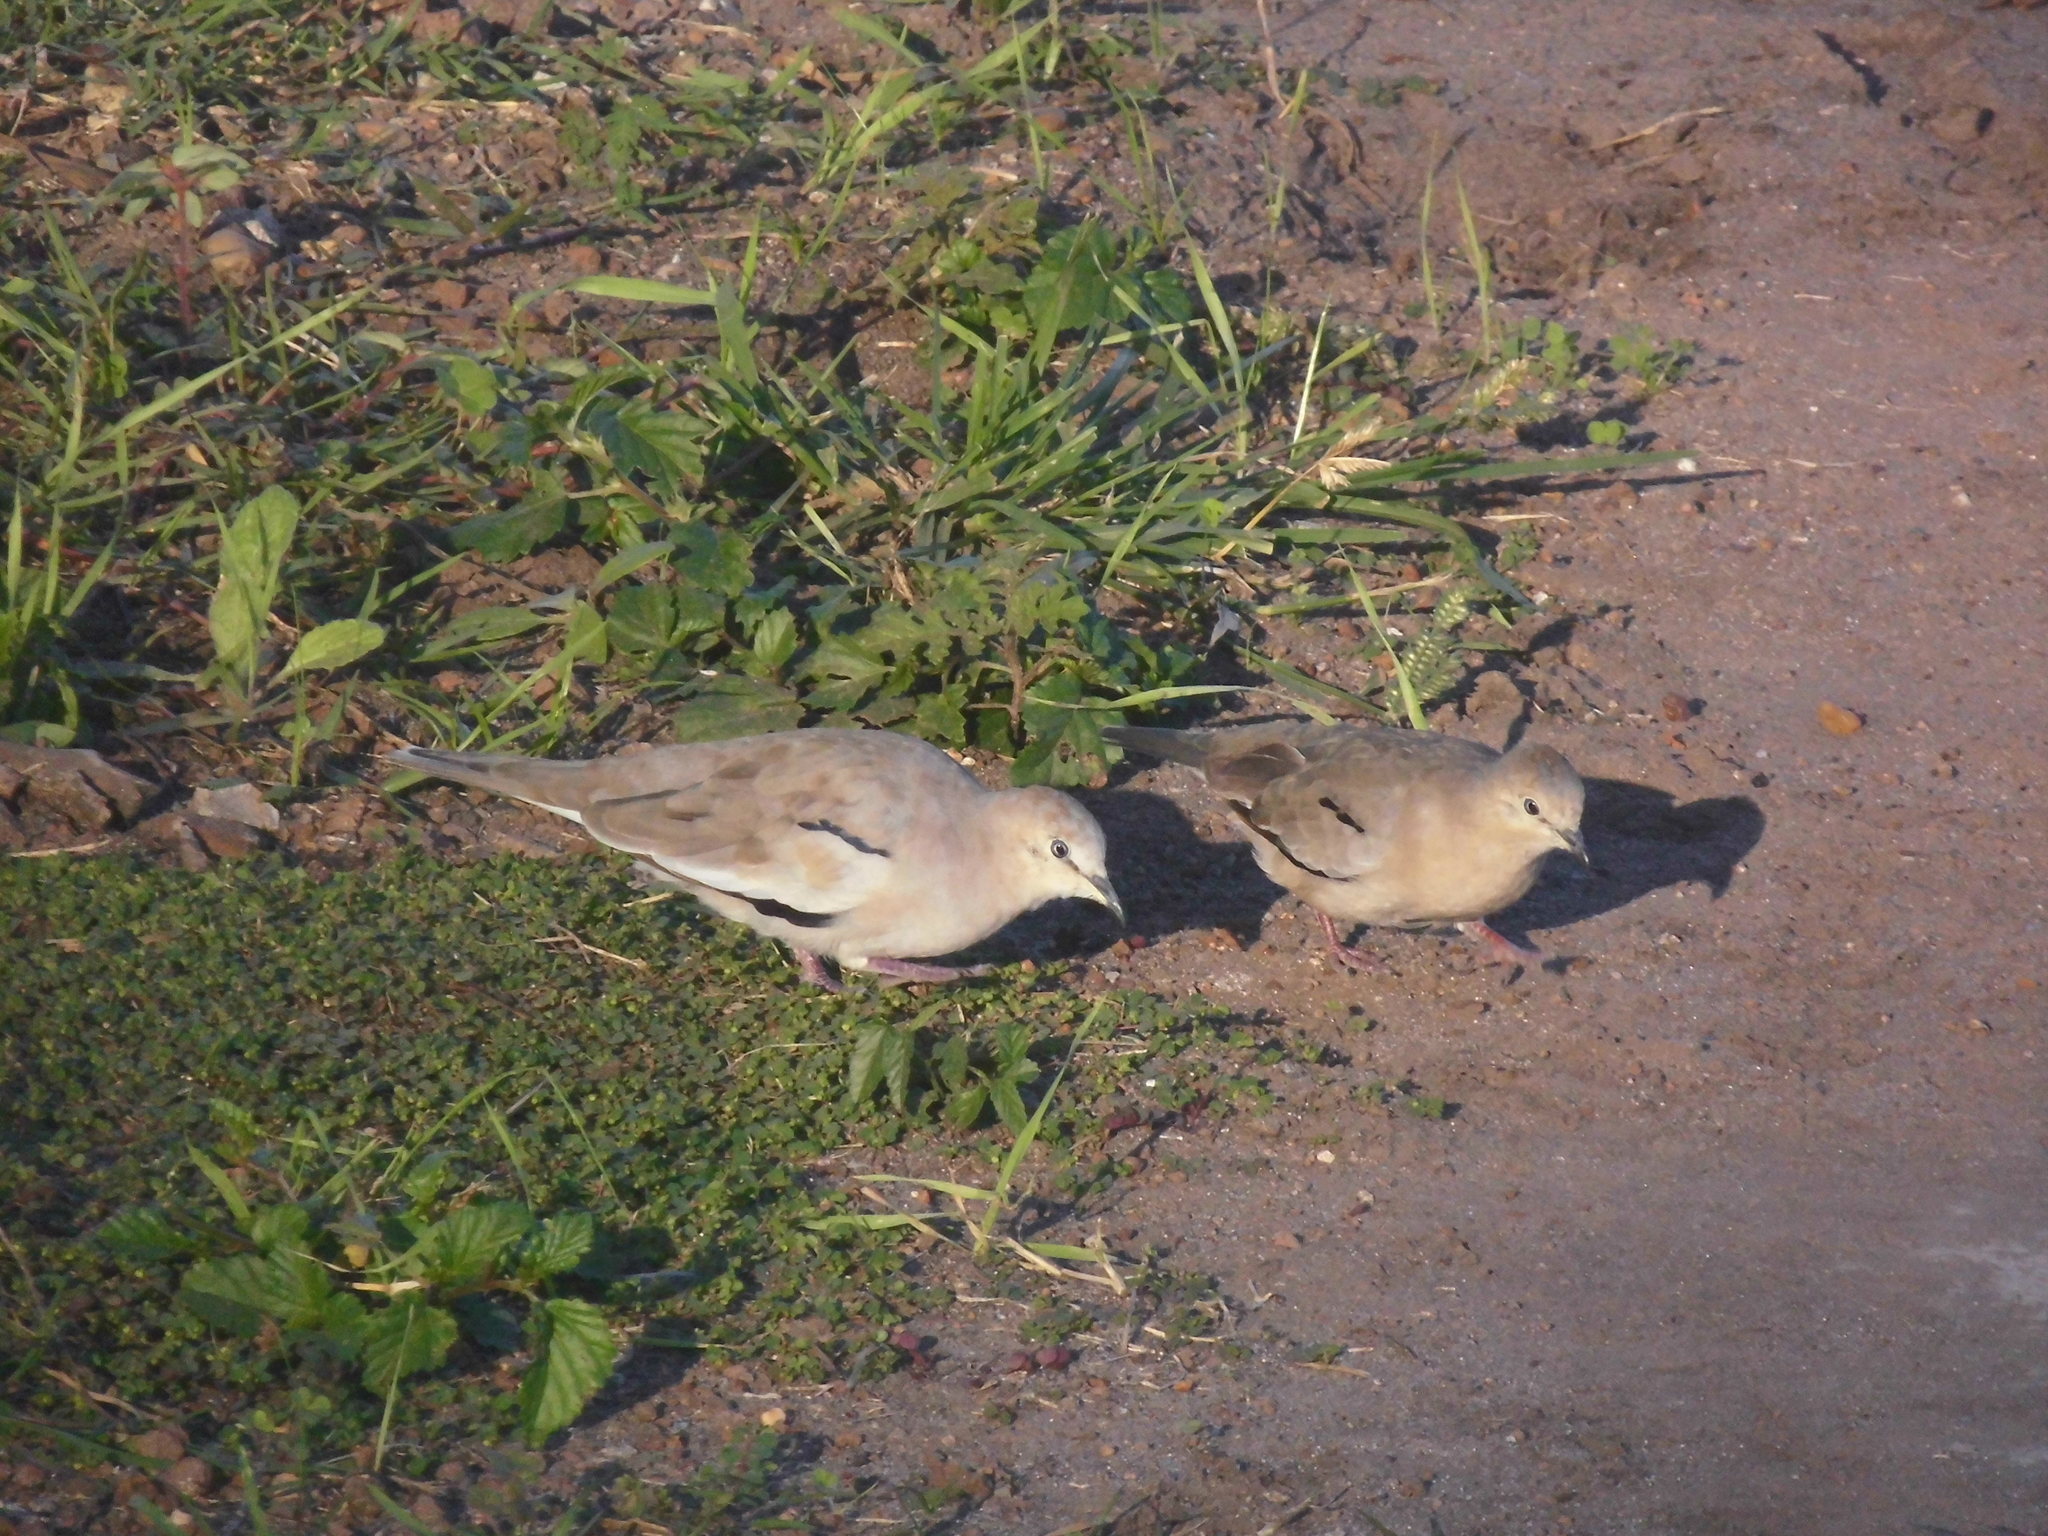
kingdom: Animalia
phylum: Chordata
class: Aves
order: Columbiformes
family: Columbidae
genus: Columbina
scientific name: Columbina picui
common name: Picui ground dove
